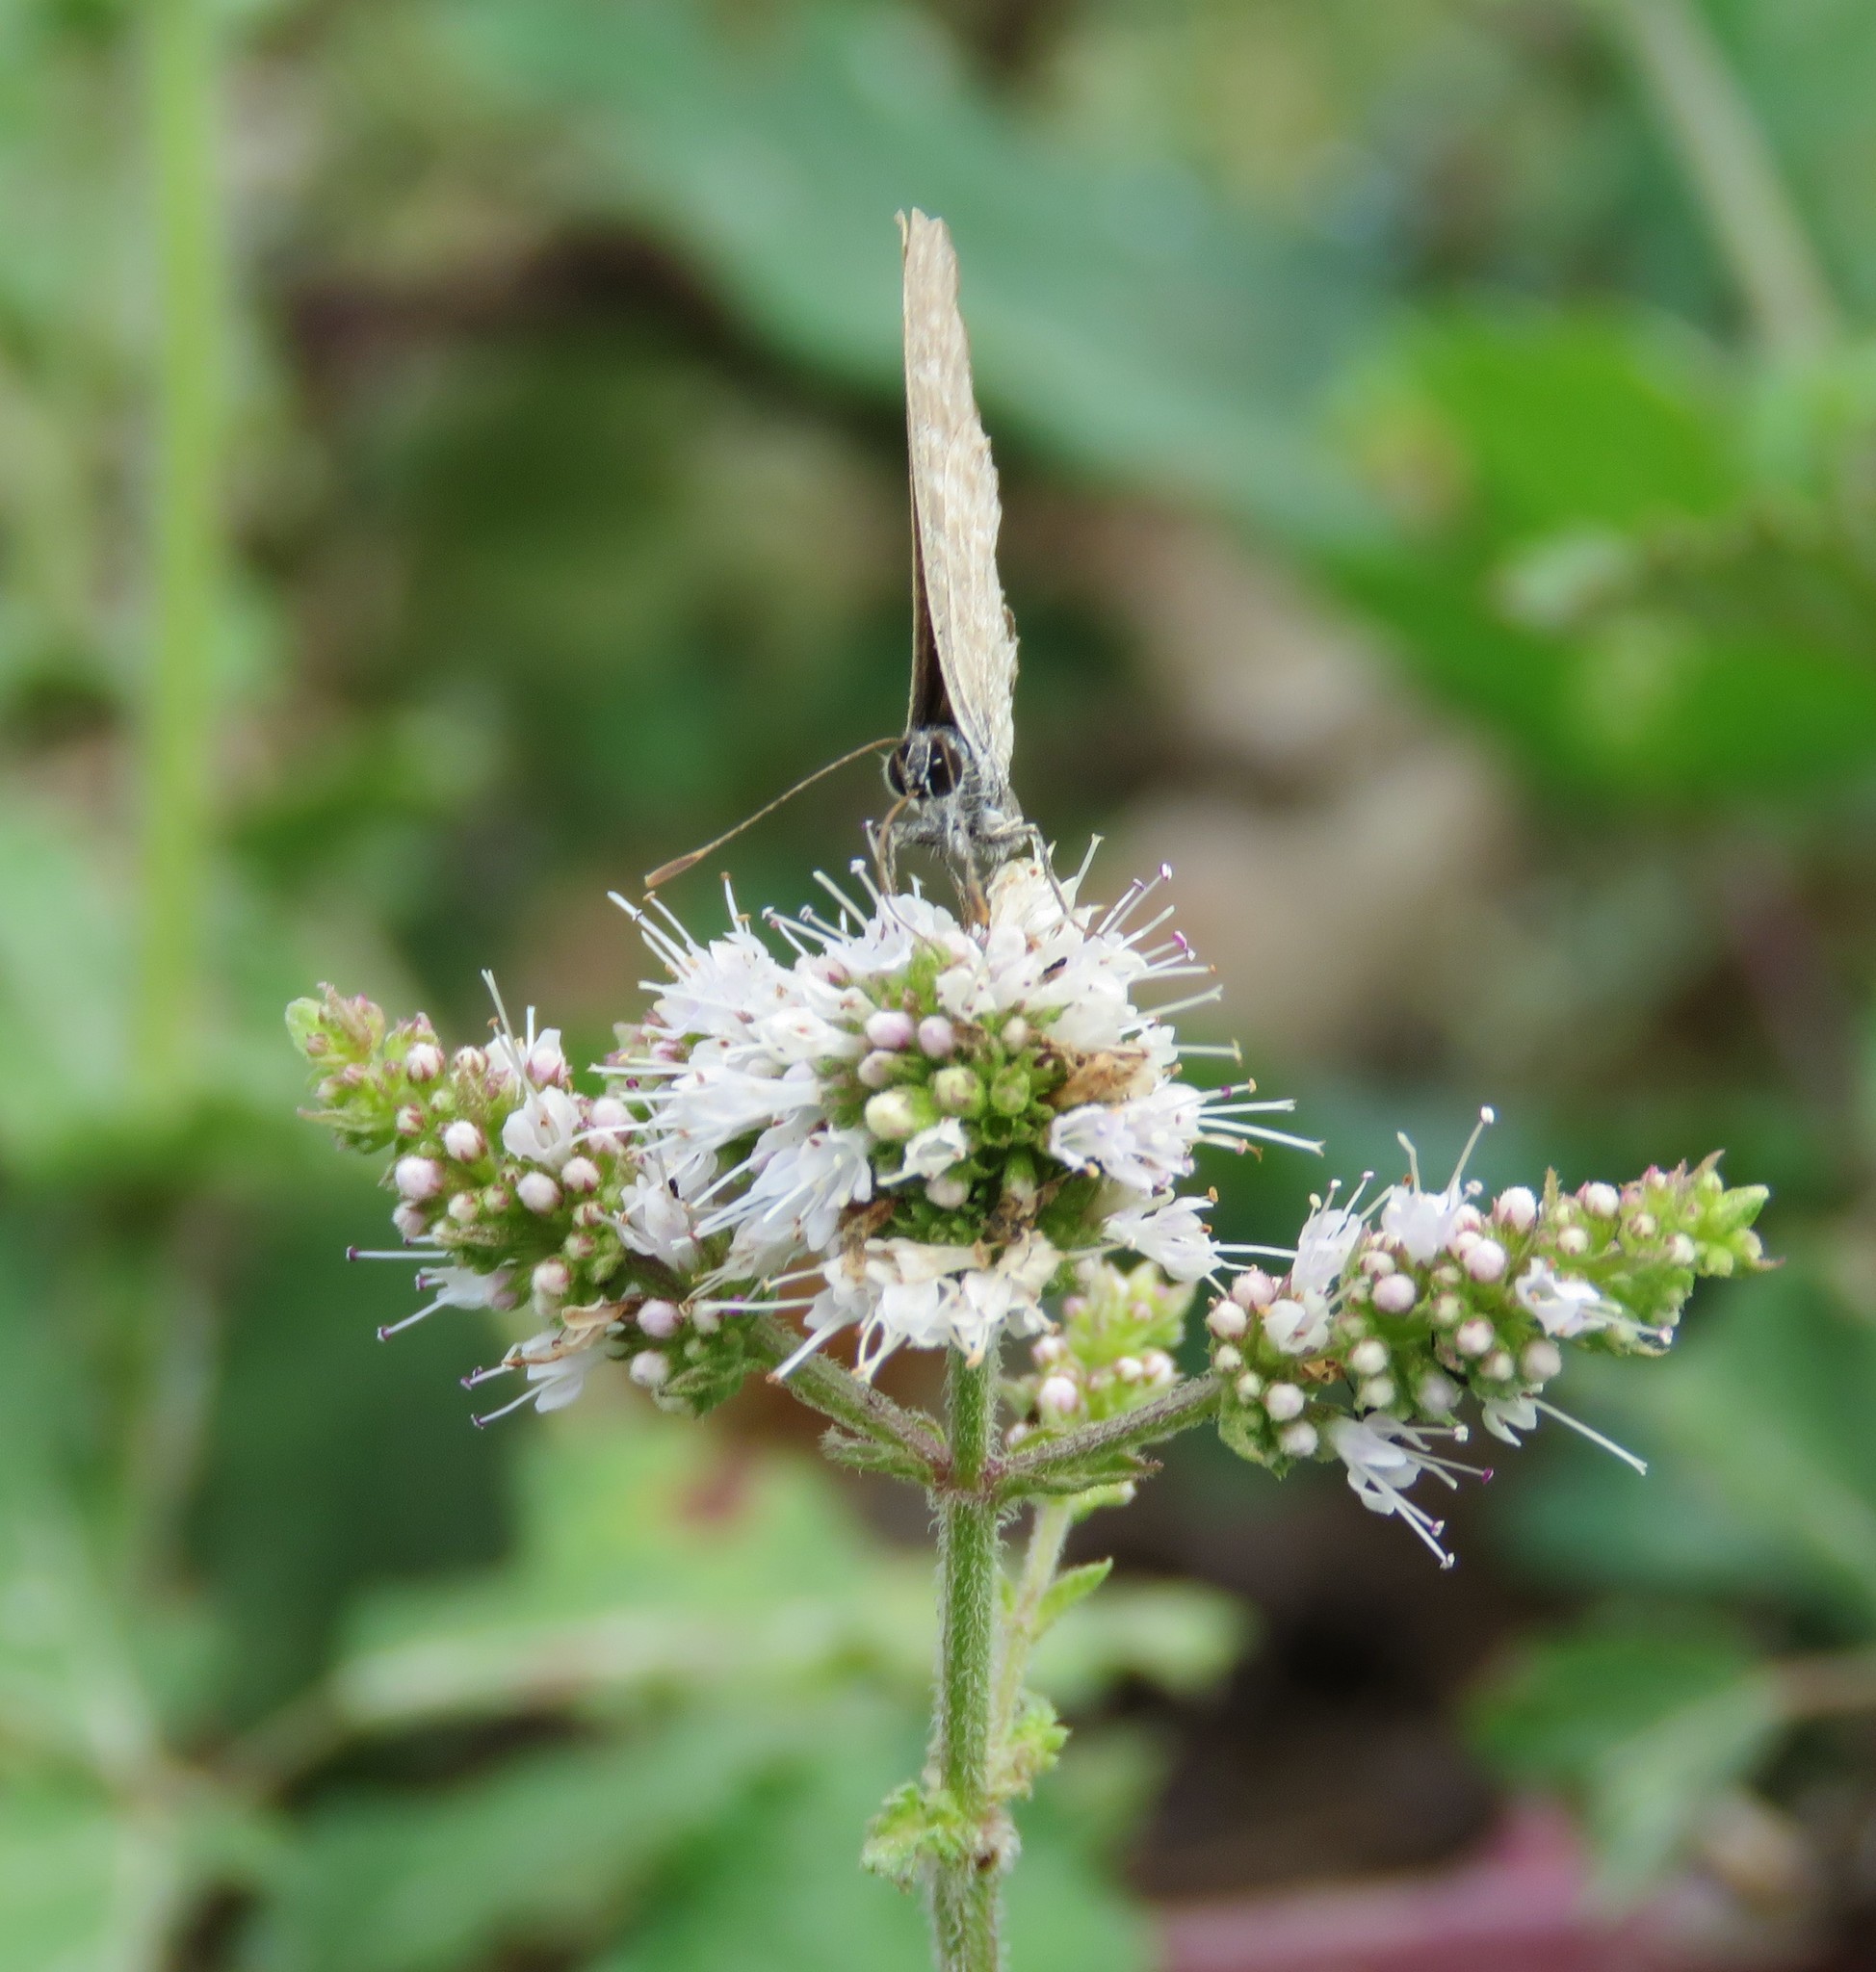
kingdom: Animalia
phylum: Arthropoda
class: Insecta
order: Lepidoptera
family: Lycaenidae
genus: Leptotes
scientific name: Leptotes pirithous
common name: Lang's short-tailed blue
